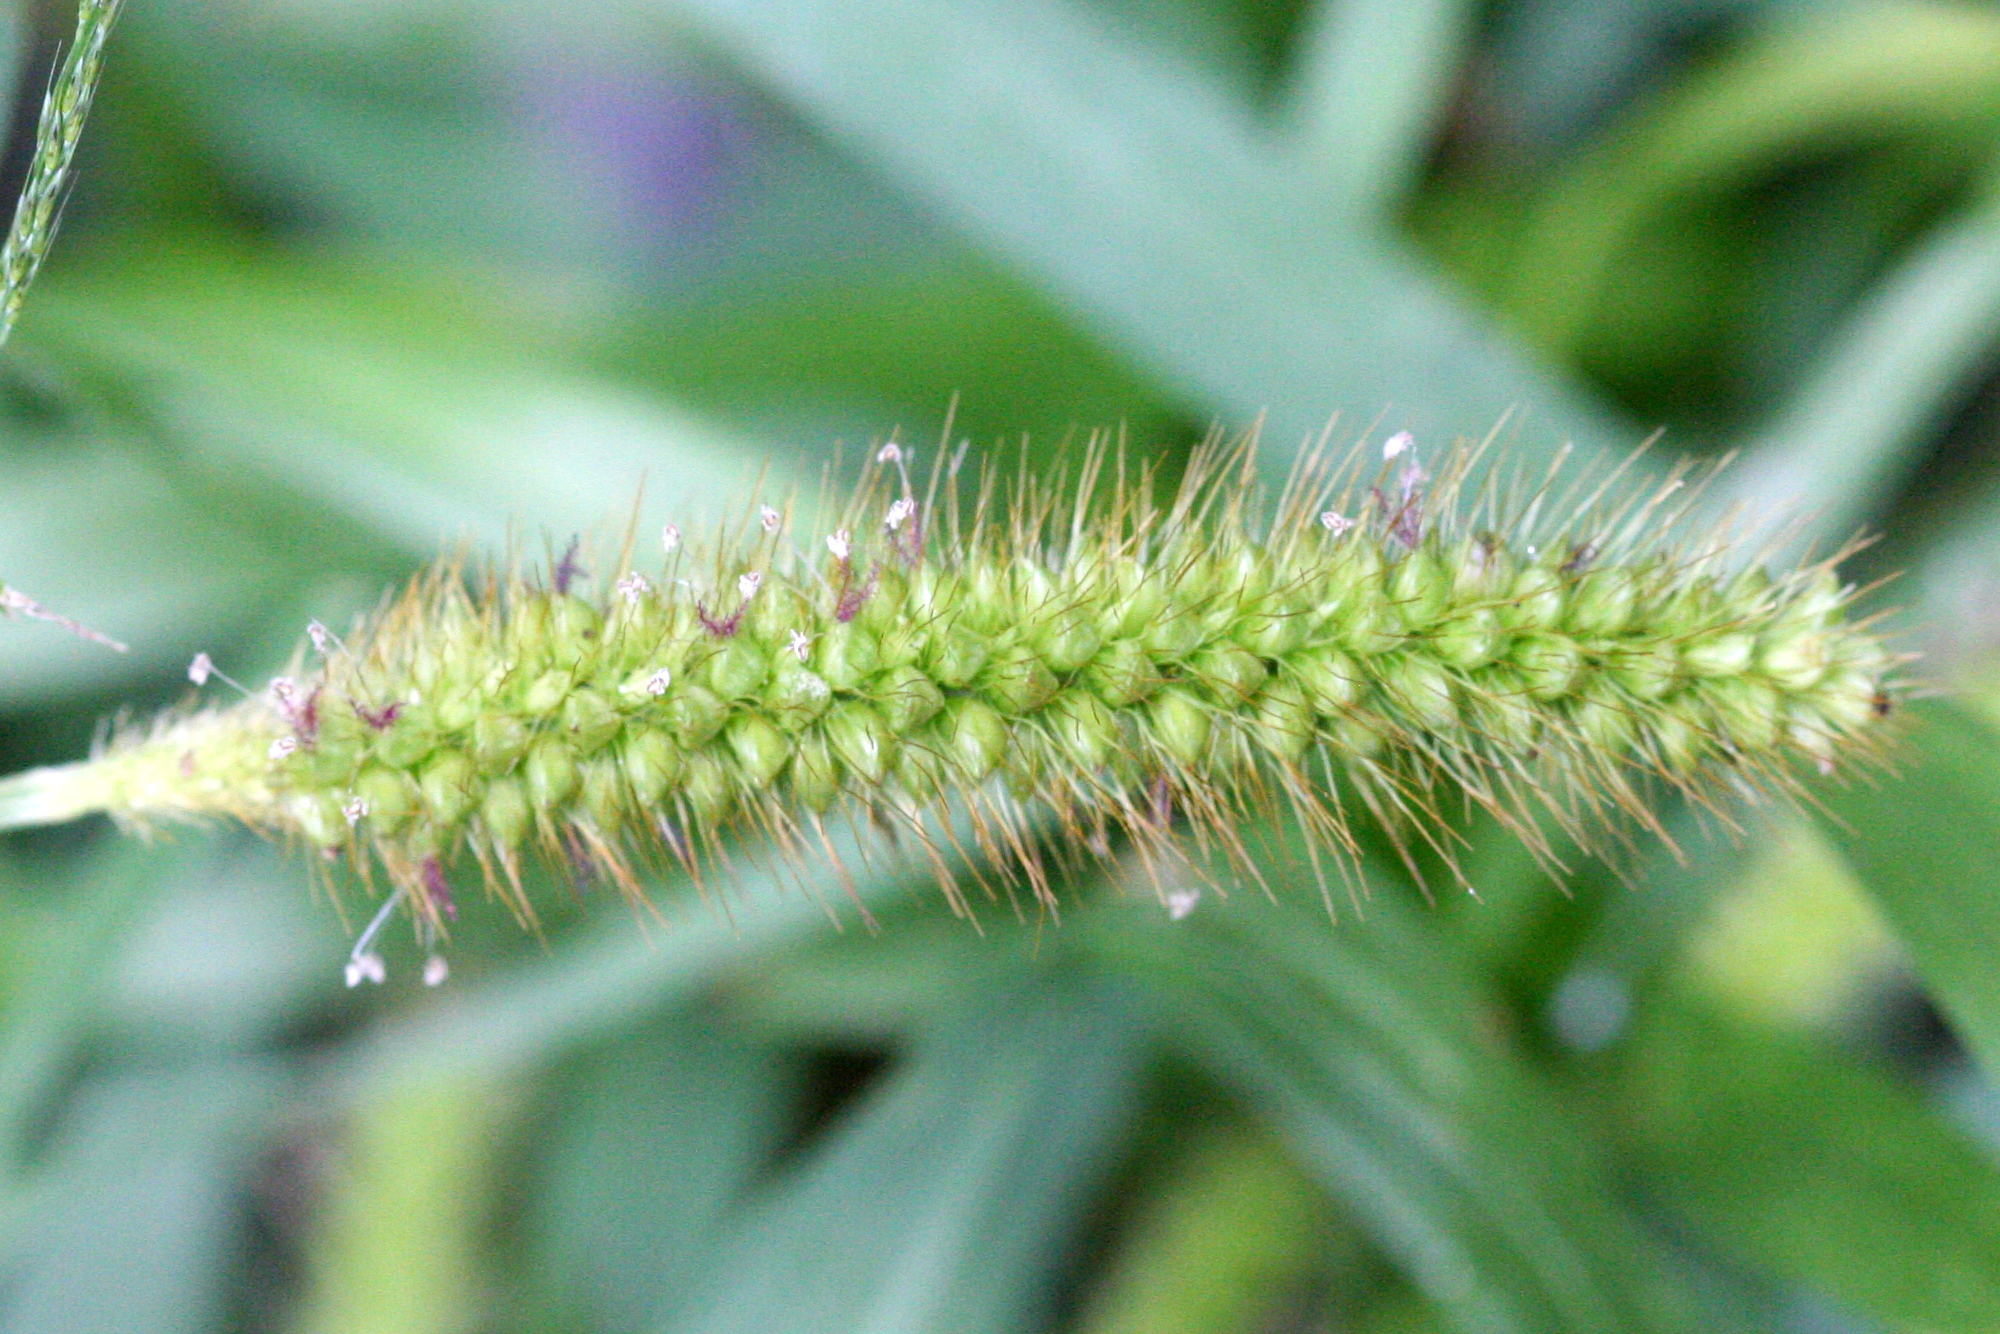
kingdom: Plantae
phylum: Tracheophyta
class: Liliopsida
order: Poales
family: Poaceae
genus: Setaria
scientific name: Setaria pumila
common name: Yellow bristle-grass
